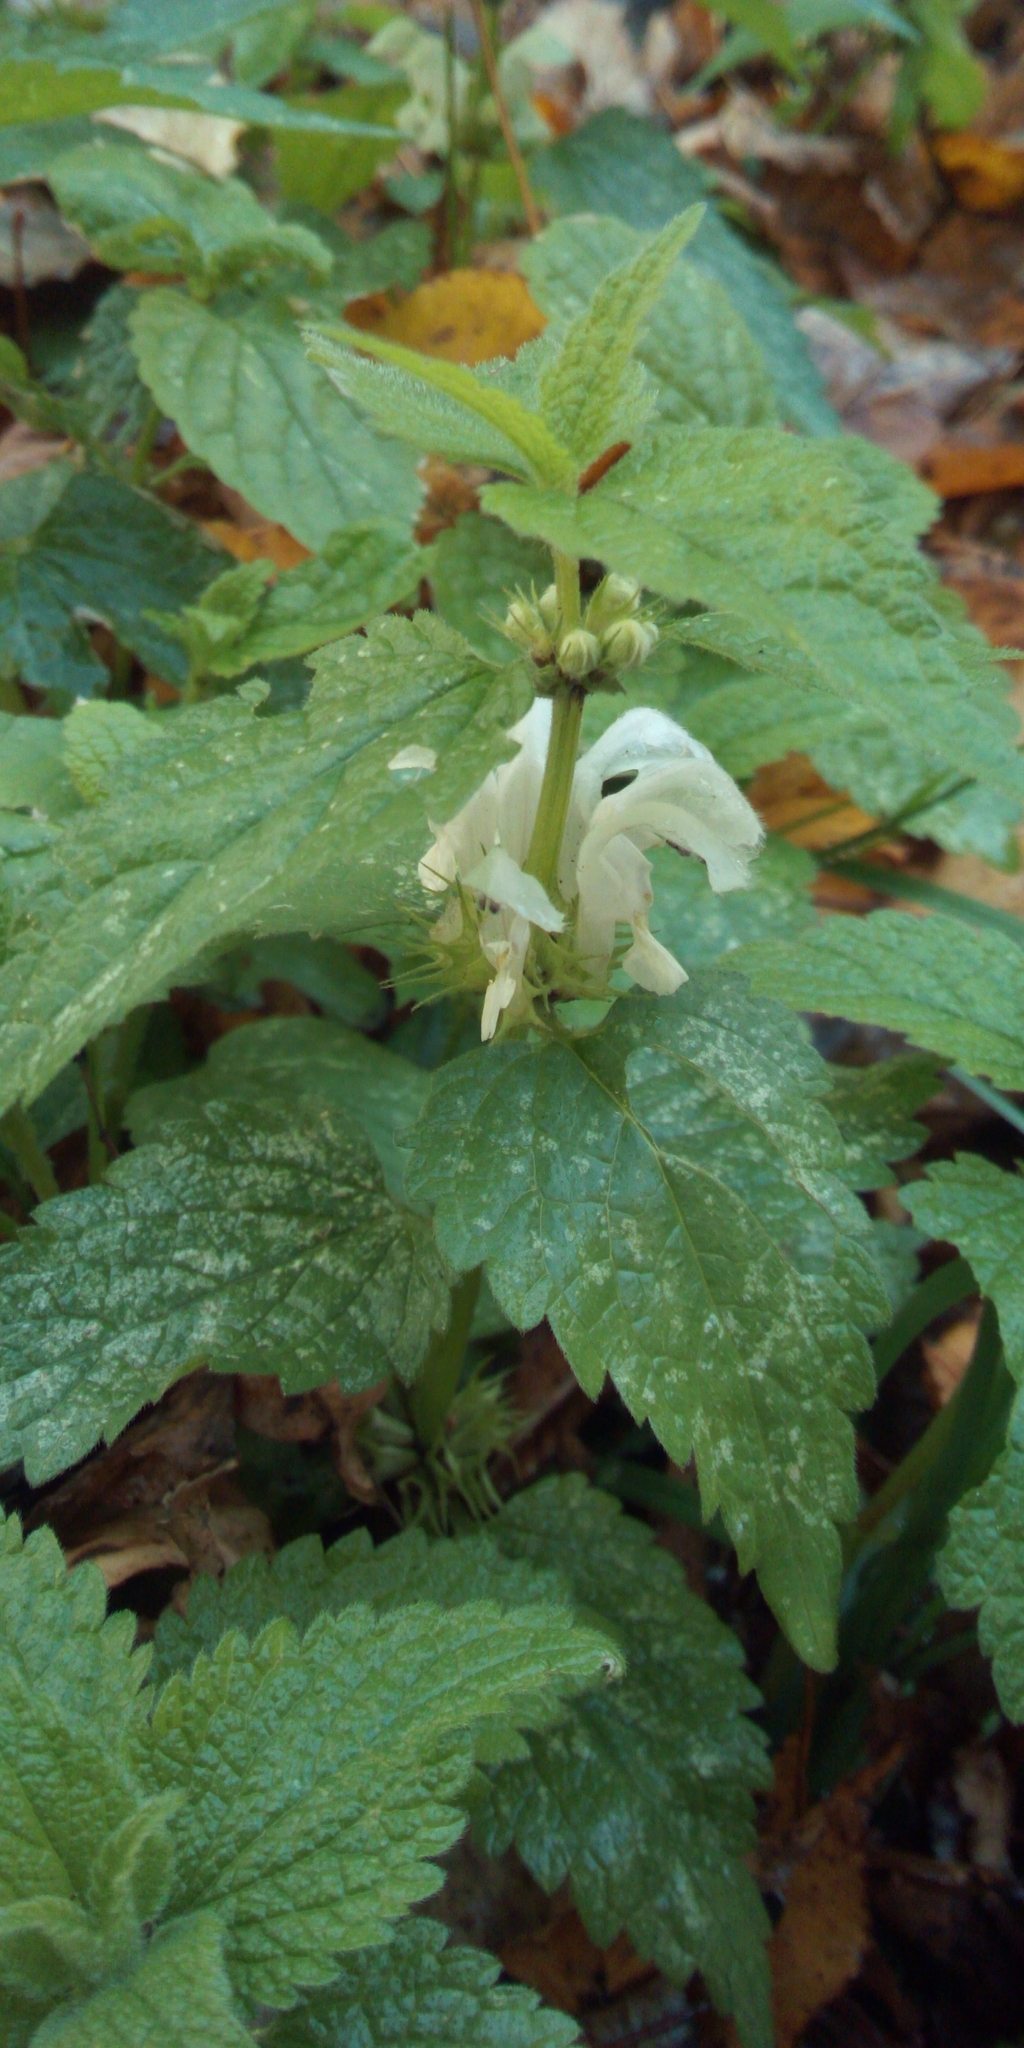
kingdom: Plantae
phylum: Tracheophyta
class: Magnoliopsida
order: Lamiales
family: Lamiaceae
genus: Lamium
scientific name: Lamium album
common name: White dead-nettle
